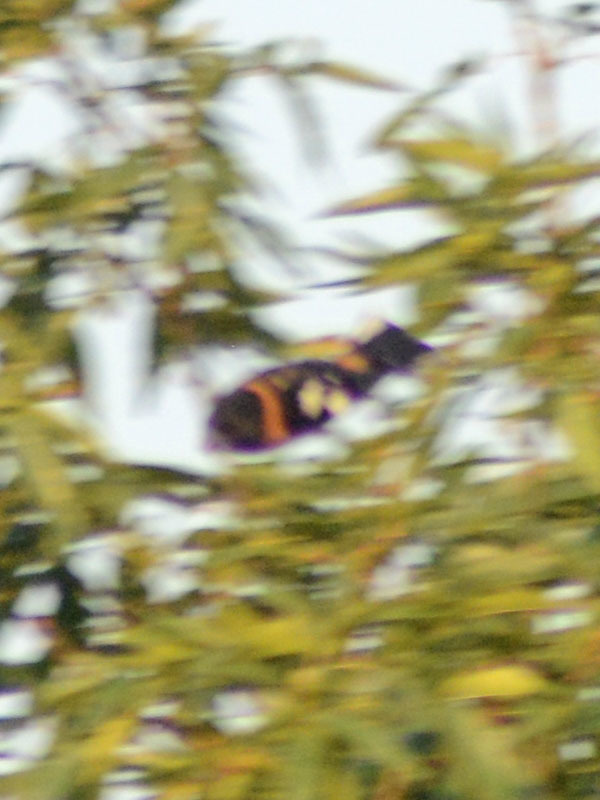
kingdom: Animalia
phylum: Chordata
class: Aves
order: Passeriformes
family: Cardinalidae
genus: Pheucticus
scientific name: Pheucticus melanocephalus
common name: Black-headed grosbeak
